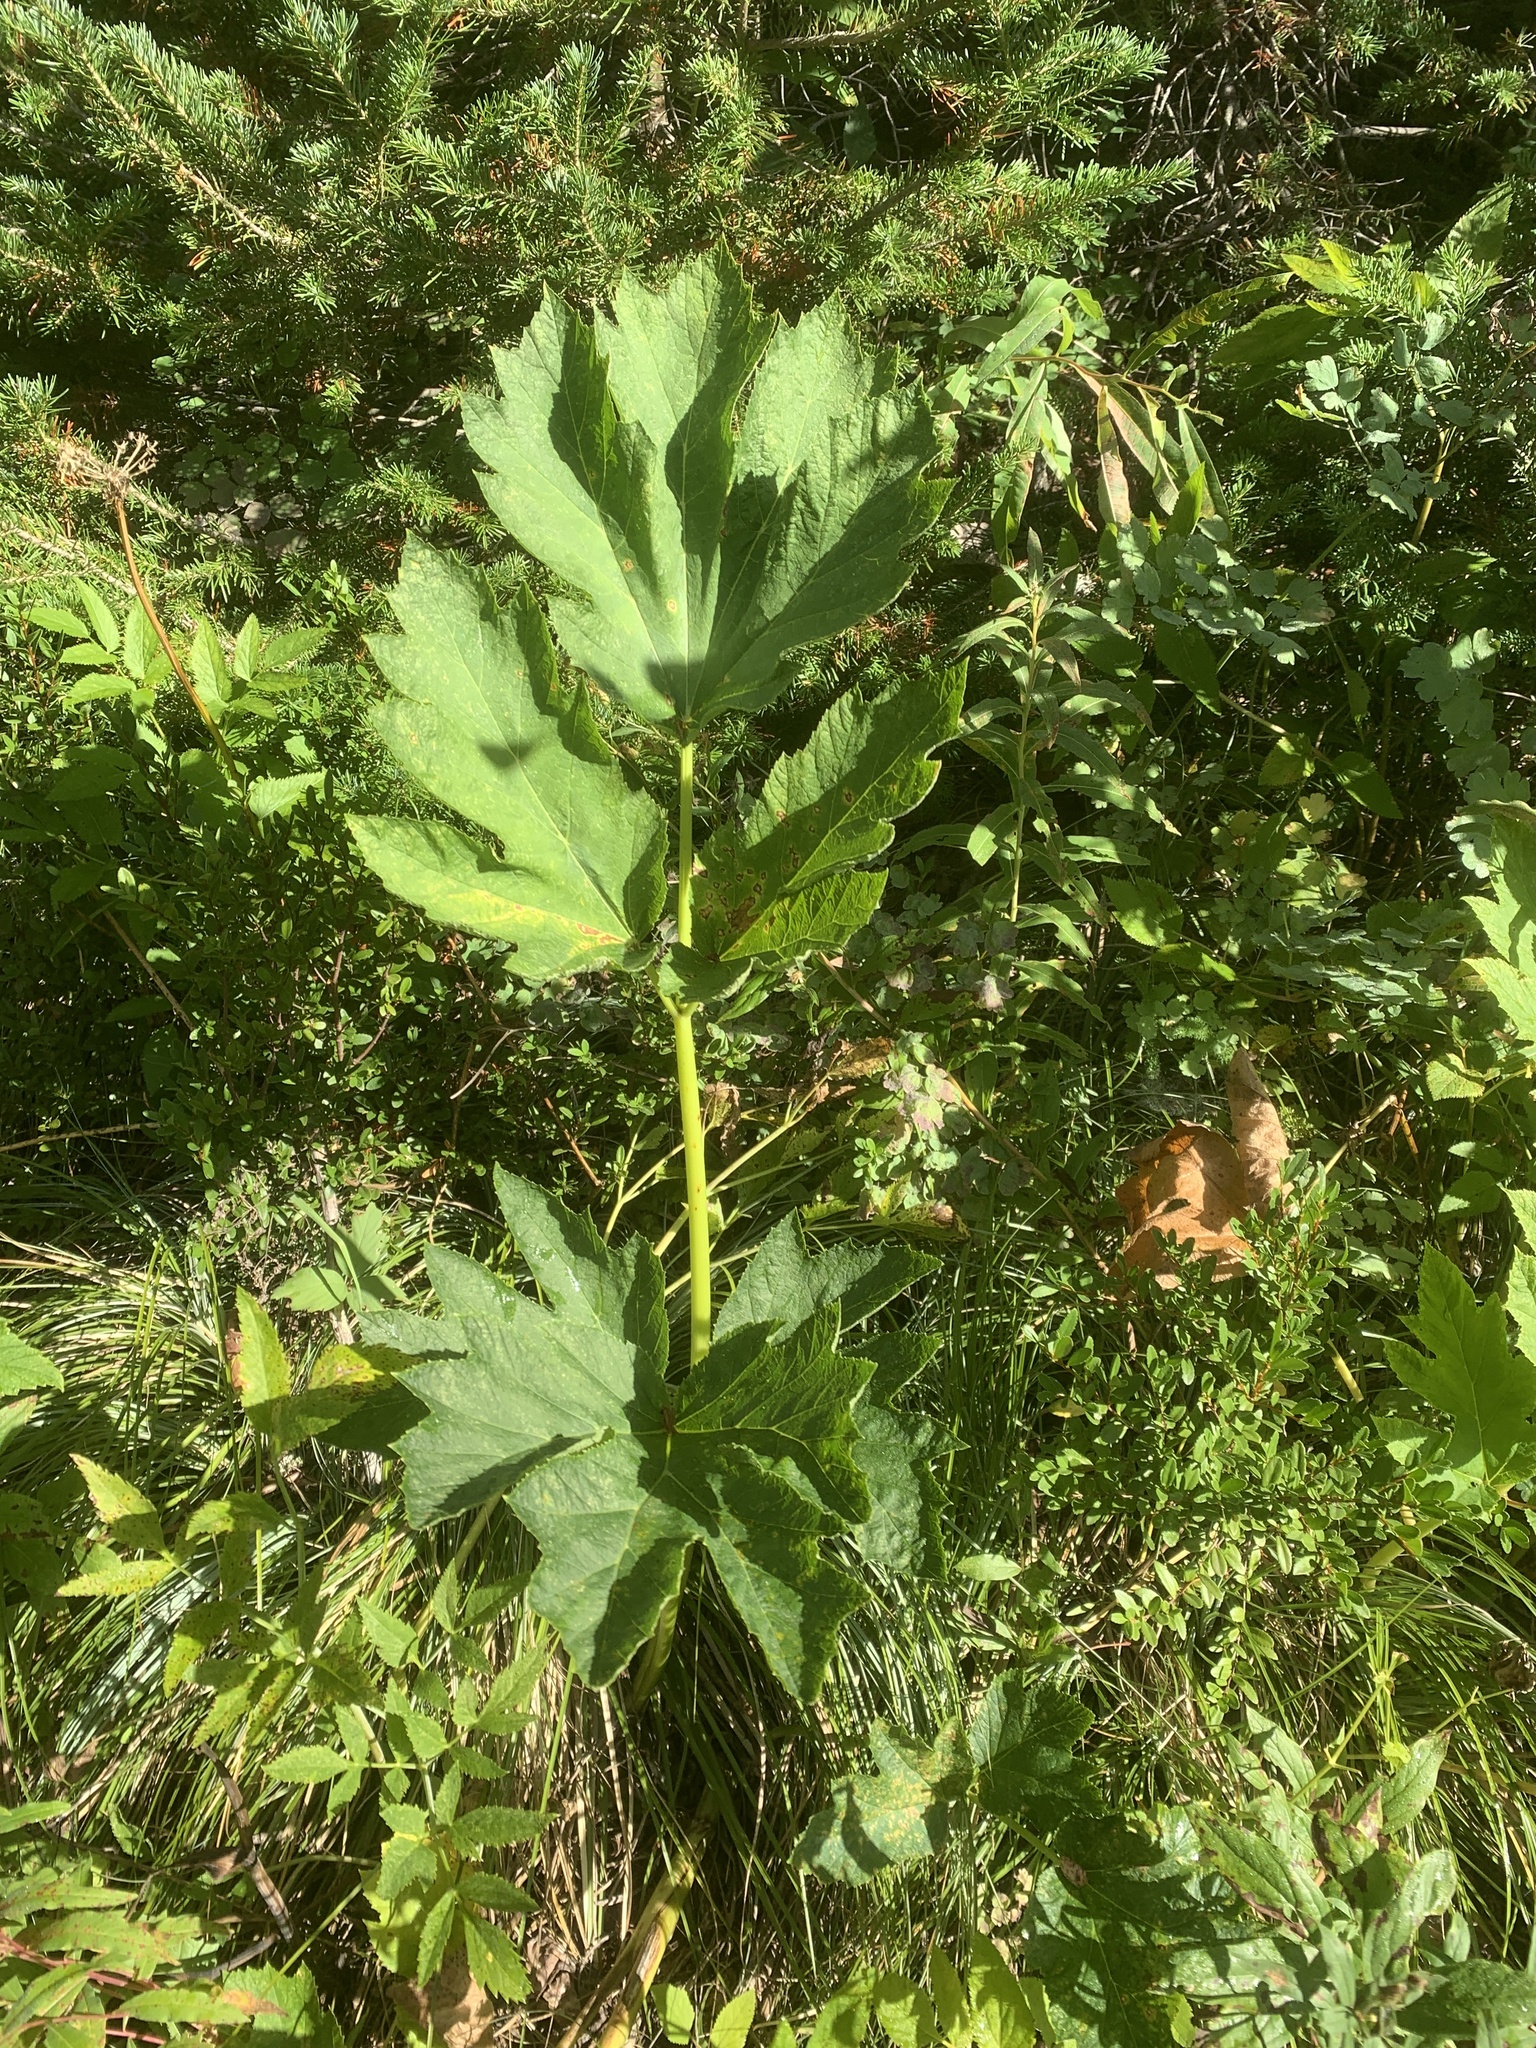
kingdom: Plantae
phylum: Tracheophyta
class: Magnoliopsida
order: Apiales
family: Apiaceae
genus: Heracleum
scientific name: Heracleum maximum
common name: American cow parsnip
